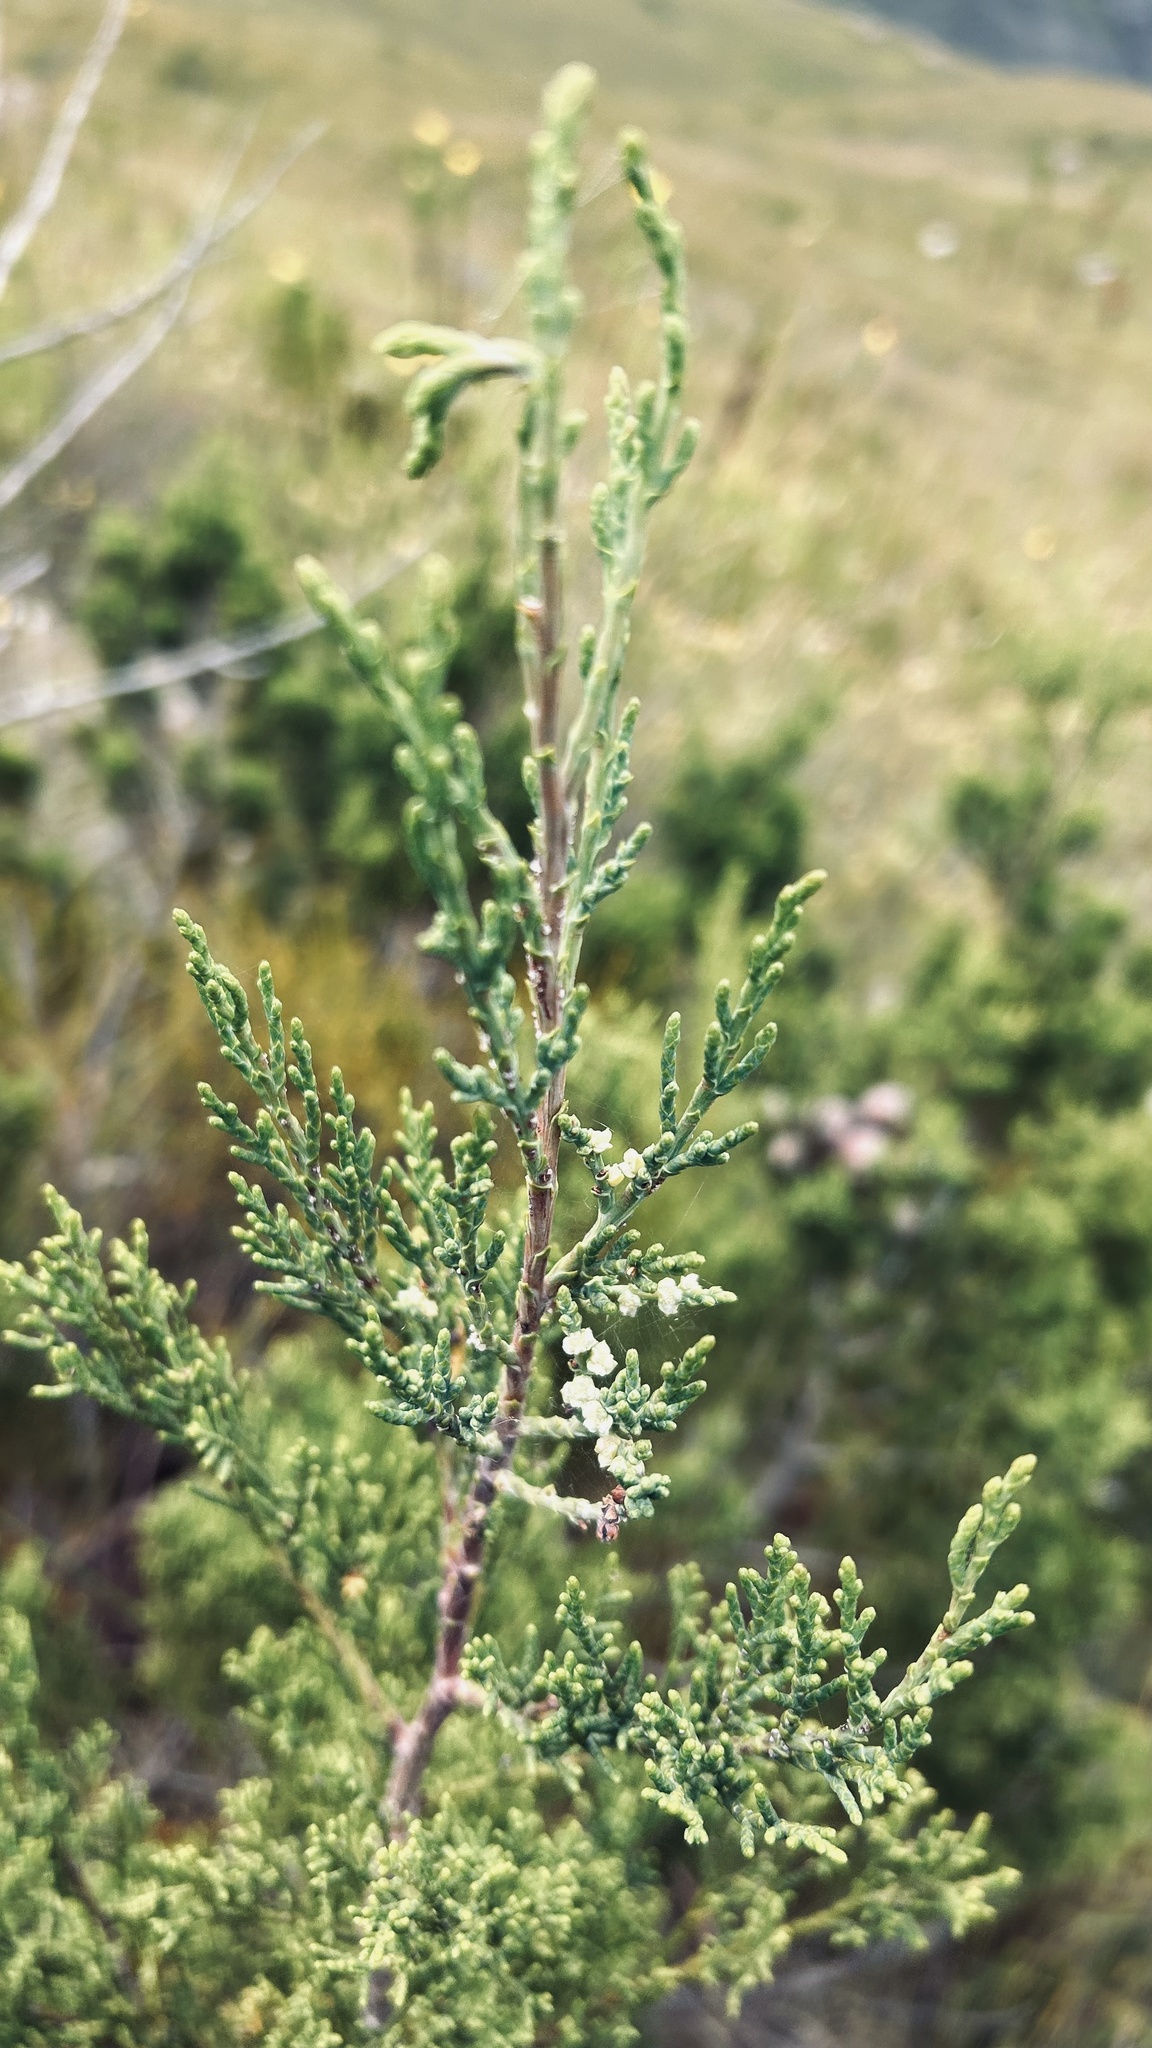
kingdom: Plantae
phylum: Tracheophyta
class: Pinopsida
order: Pinales
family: Cupressaceae
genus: Widdringtonia
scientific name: Widdringtonia nodiflora
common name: Cape cypress
